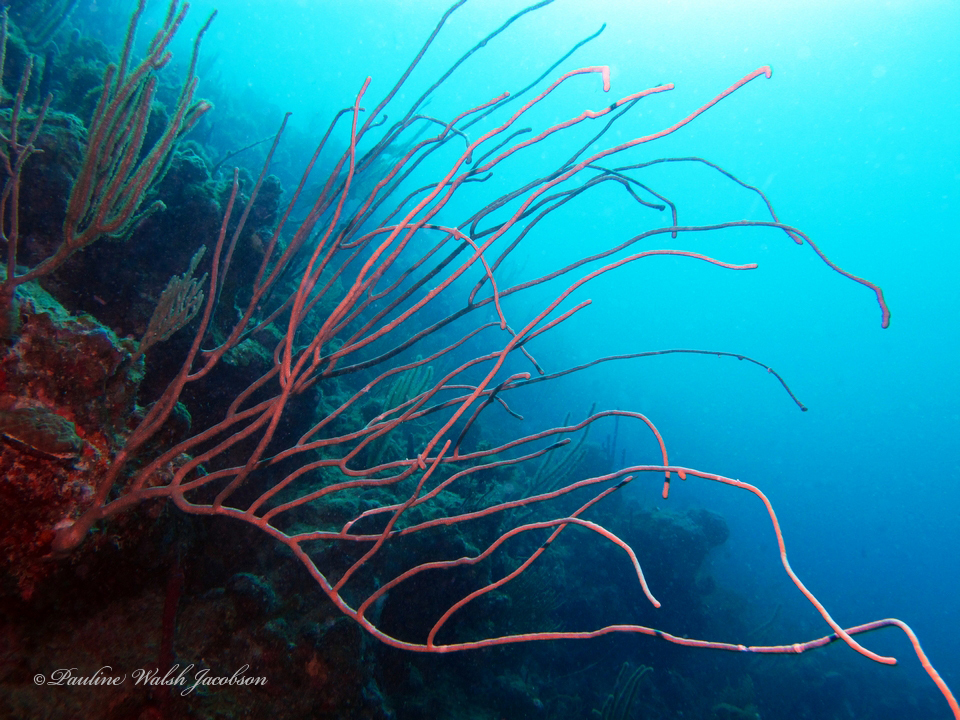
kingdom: Animalia
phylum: Cnidaria
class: Anthozoa
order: Scleralcyonacea
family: Ellisellidae
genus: Ellisella
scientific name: Ellisella elongata
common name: Long sea whip
